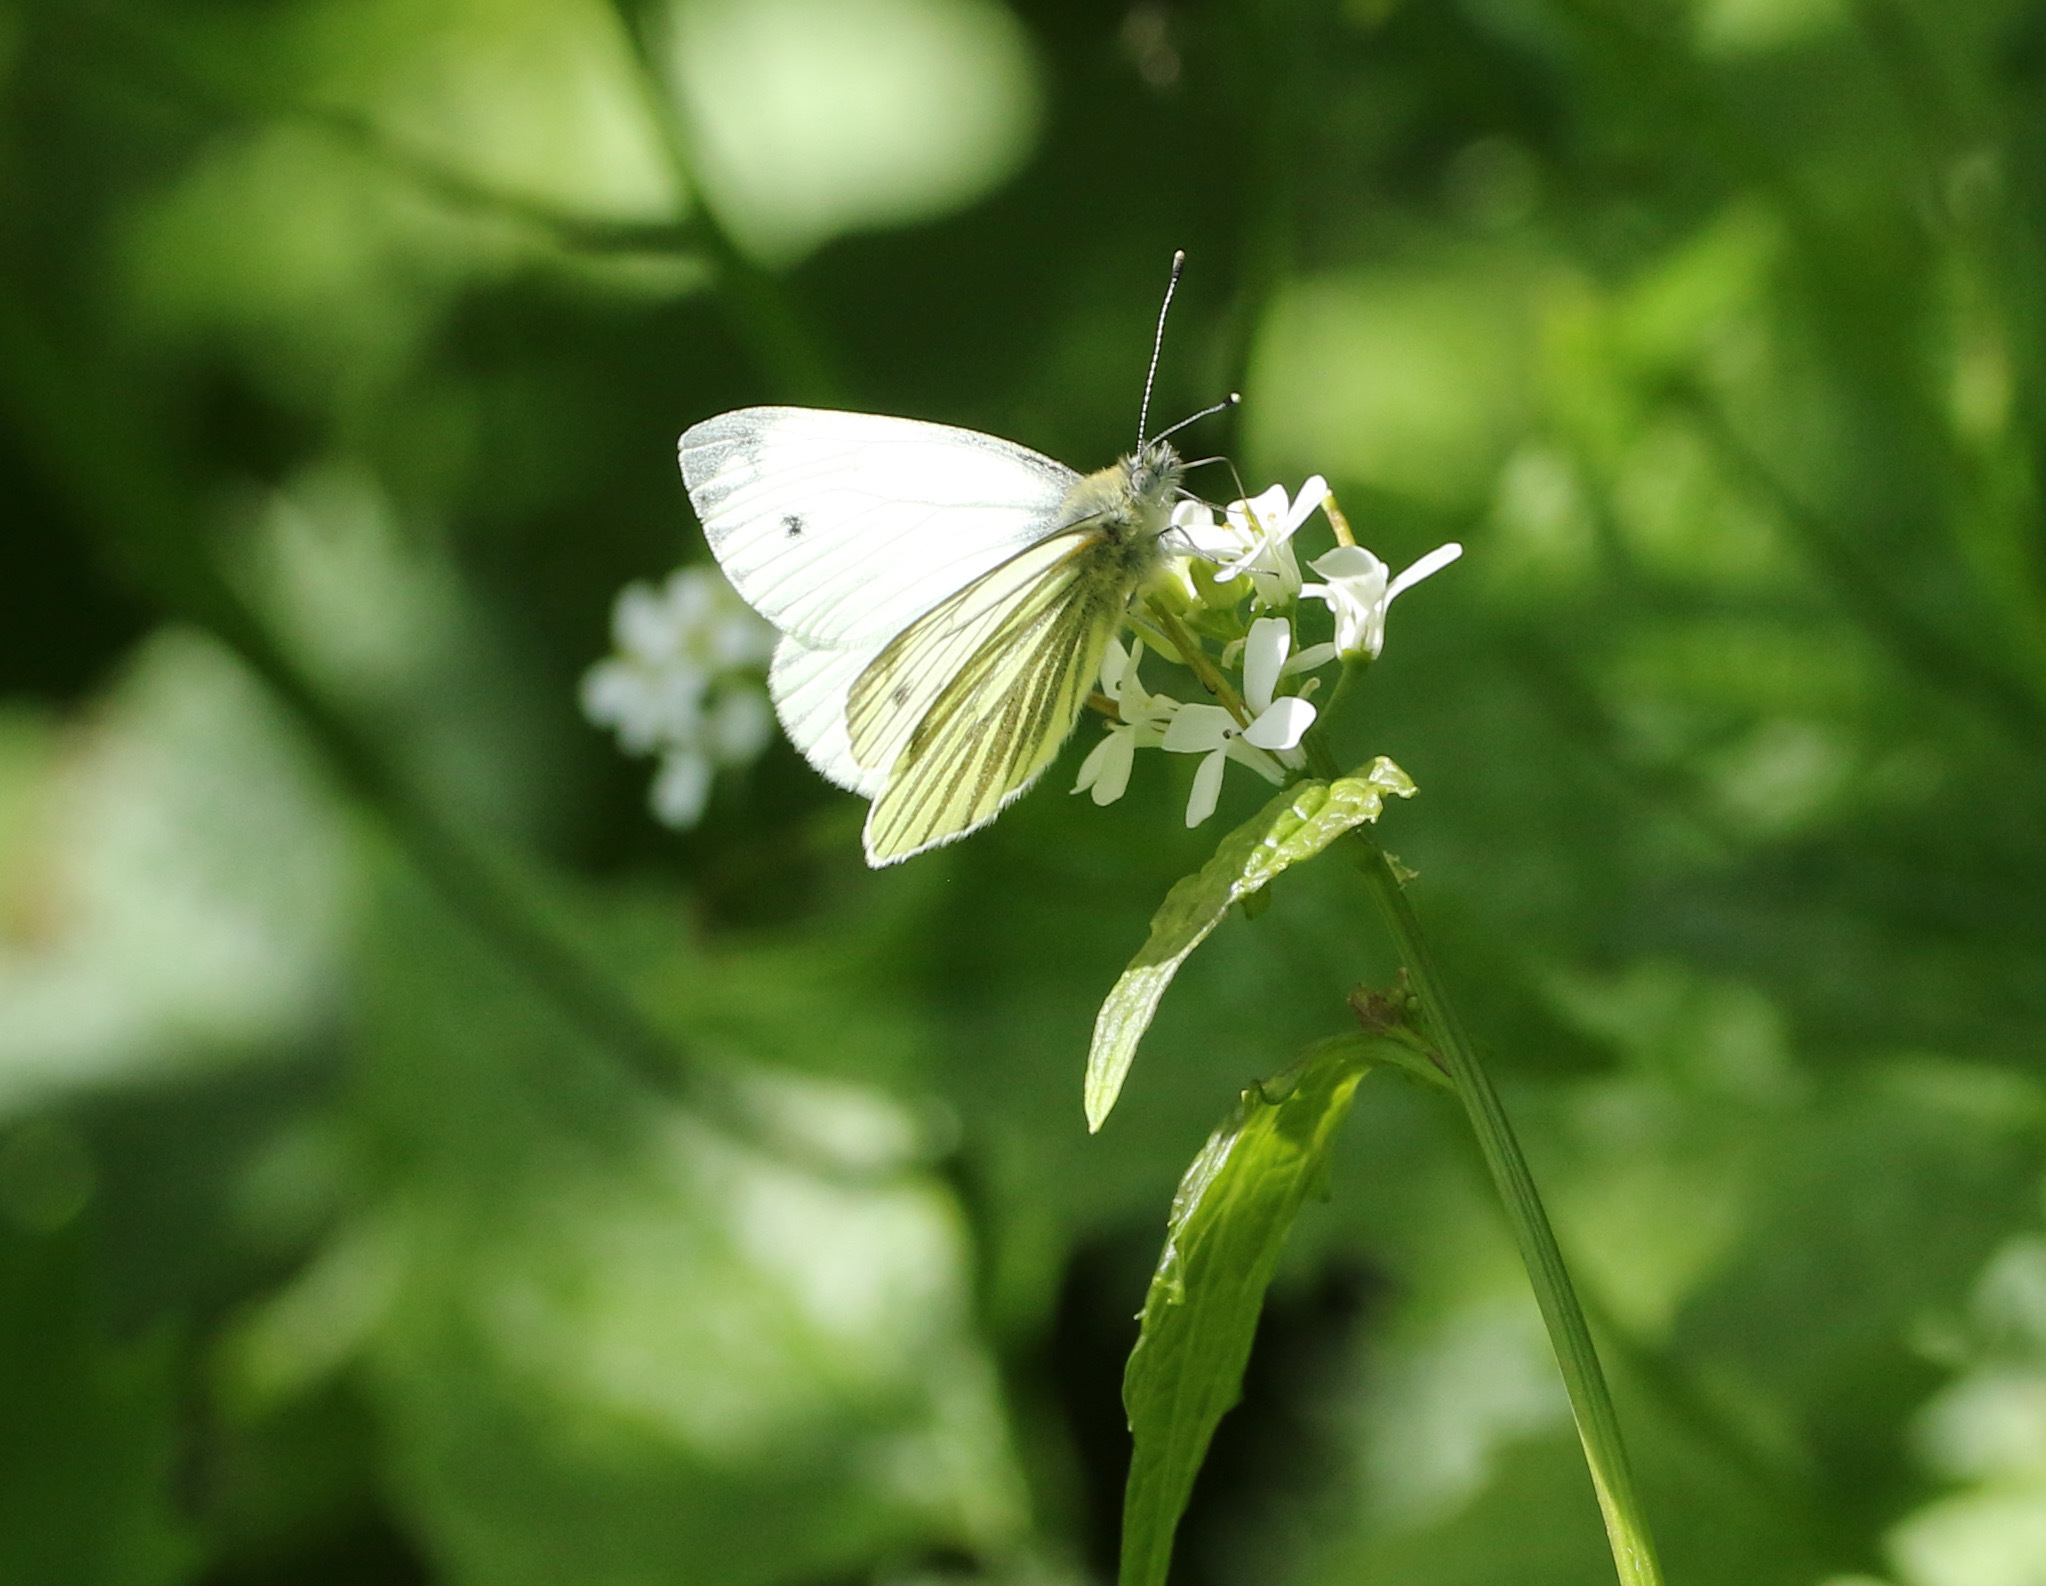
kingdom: Animalia
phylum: Arthropoda
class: Insecta
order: Lepidoptera
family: Pieridae
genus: Pieris
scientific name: Pieris napi
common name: Green-veined white
